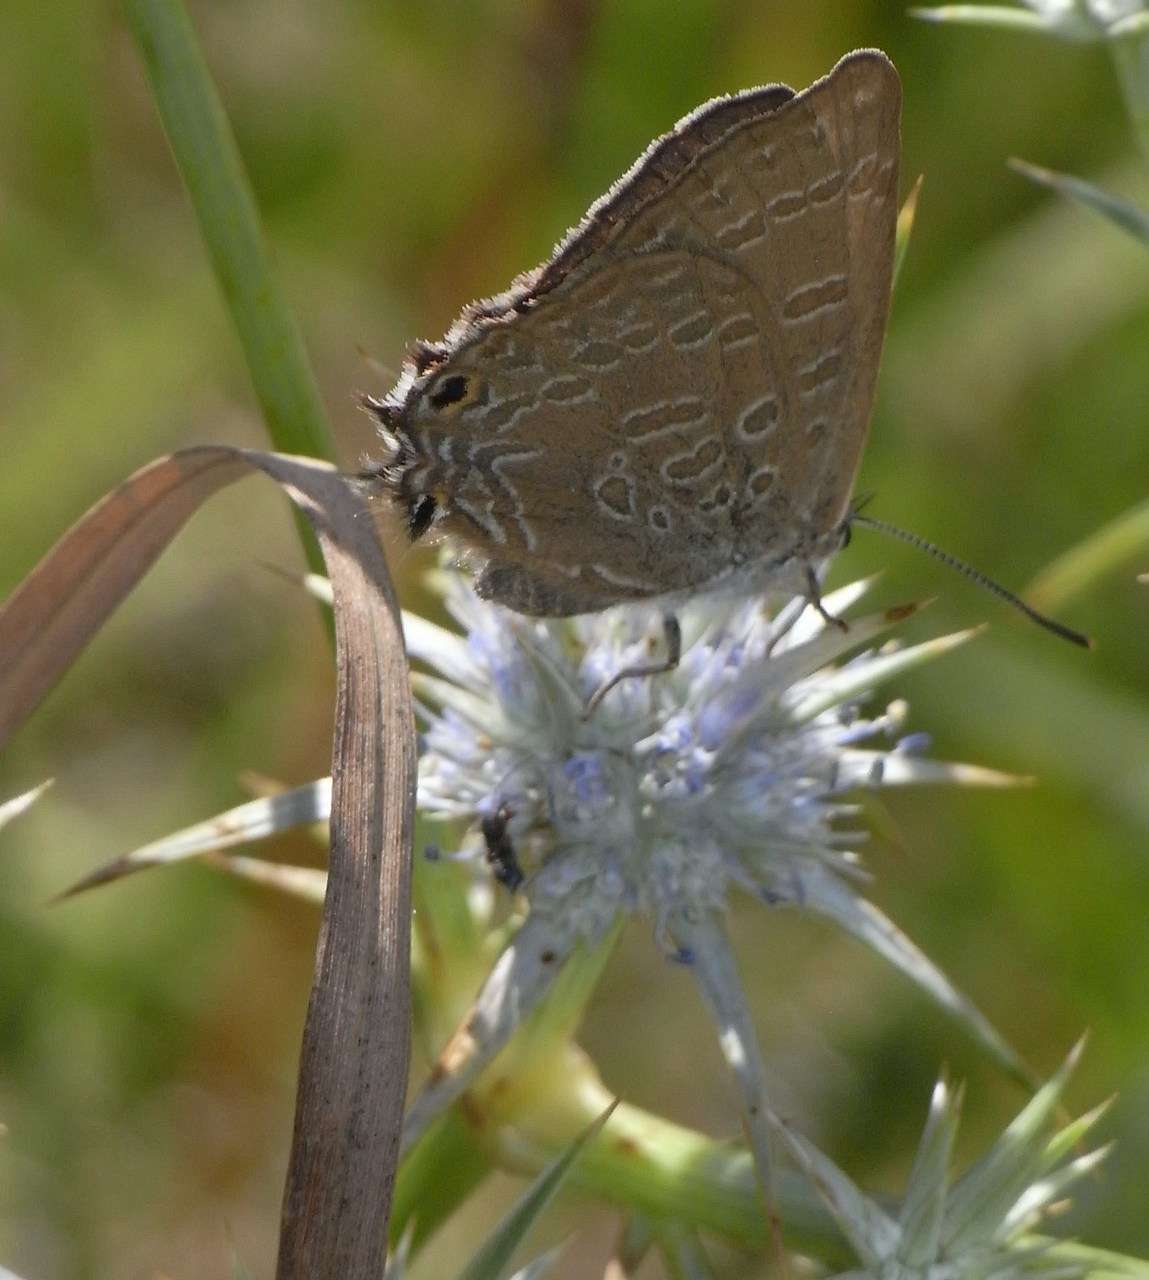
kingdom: Plantae
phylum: Tracheophyta
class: Magnoliopsida
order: Apiales
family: Apiaceae
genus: Eryngium
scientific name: Eryngium ovinum
